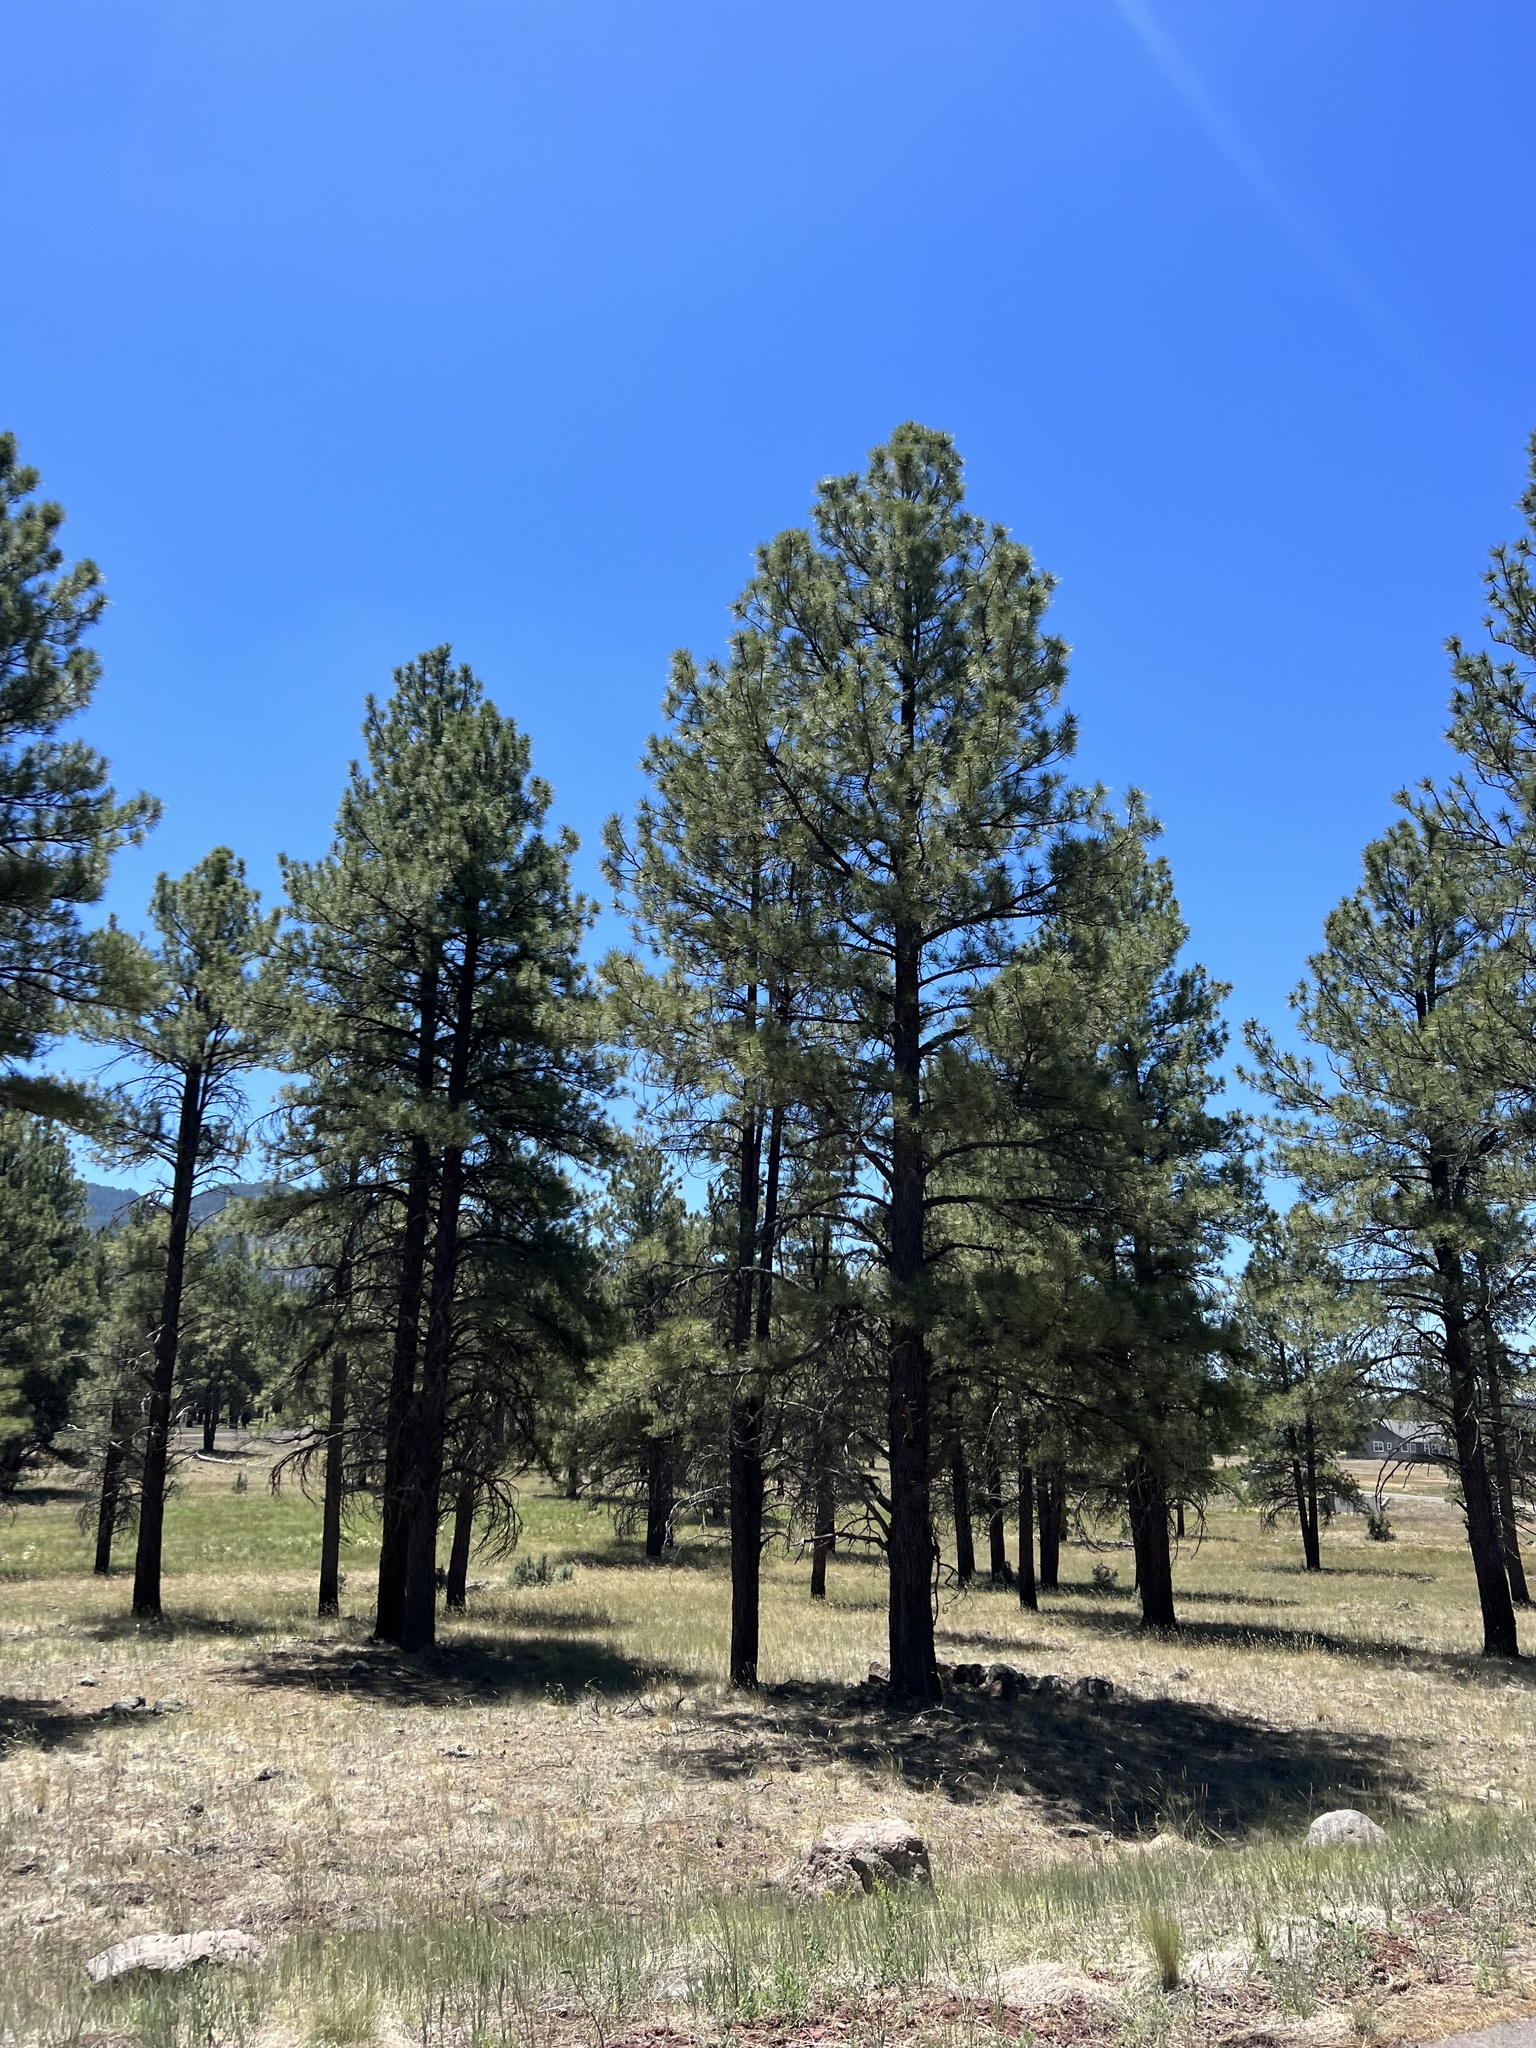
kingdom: Plantae
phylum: Tracheophyta
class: Pinopsida
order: Pinales
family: Pinaceae
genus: Pinus
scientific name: Pinus ponderosa
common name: Western yellow-pine
